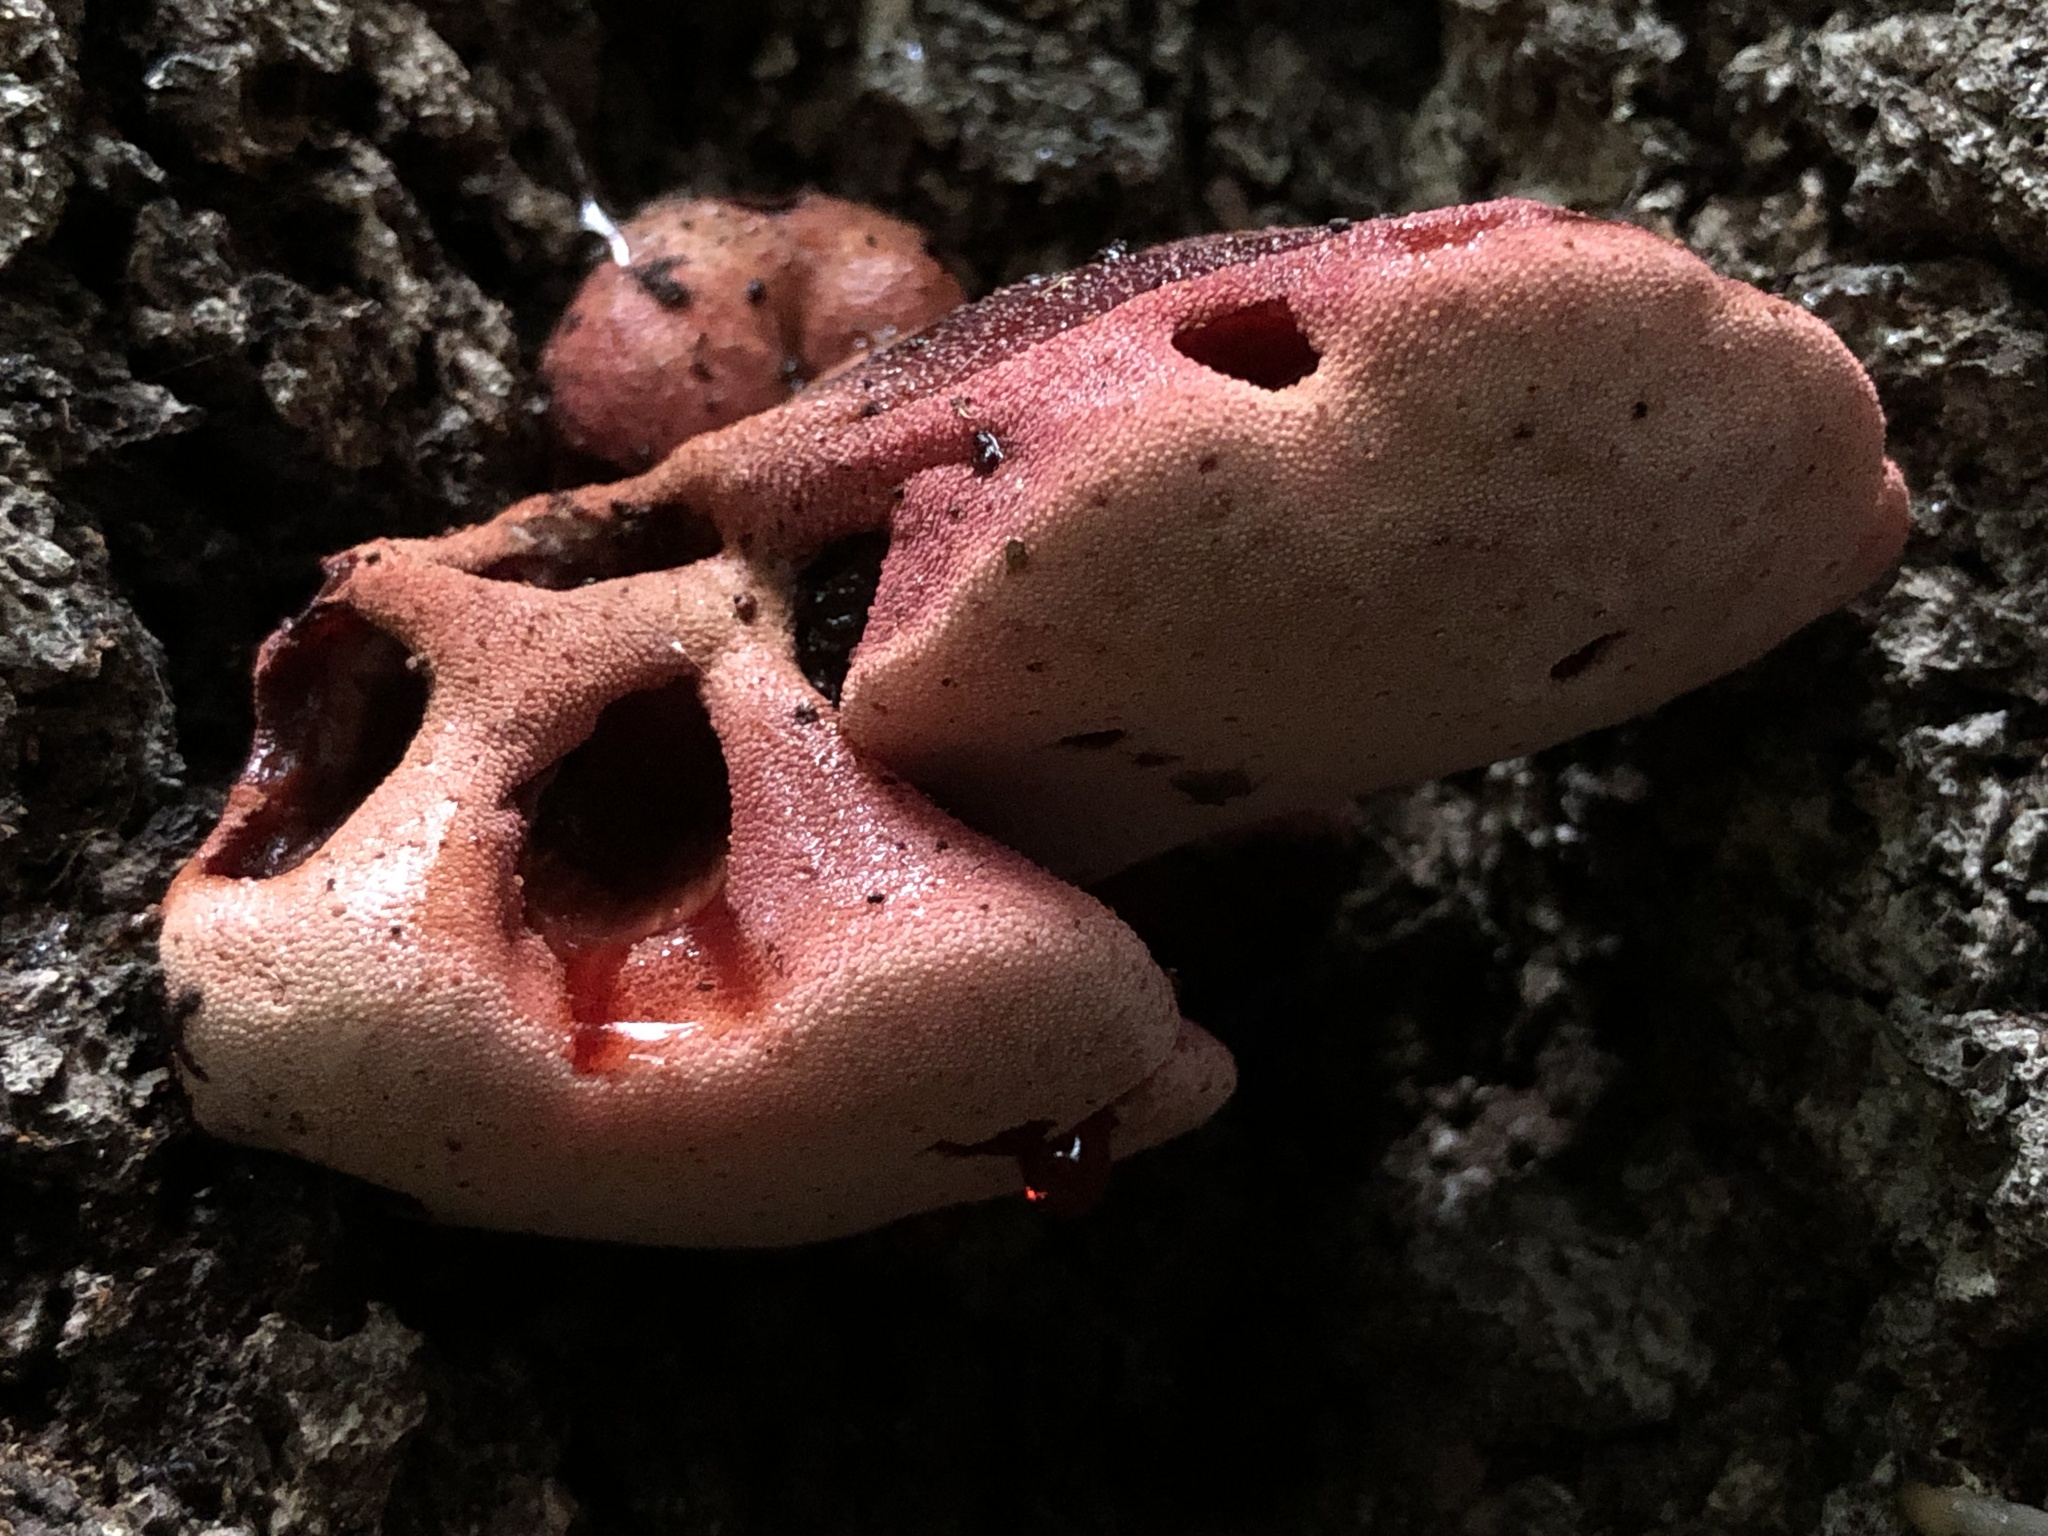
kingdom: Fungi
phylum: Basidiomycota
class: Agaricomycetes
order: Agaricales
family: Fistulinaceae
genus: Fistulina
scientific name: Fistulina hepatica
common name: Beef-steak fungus
